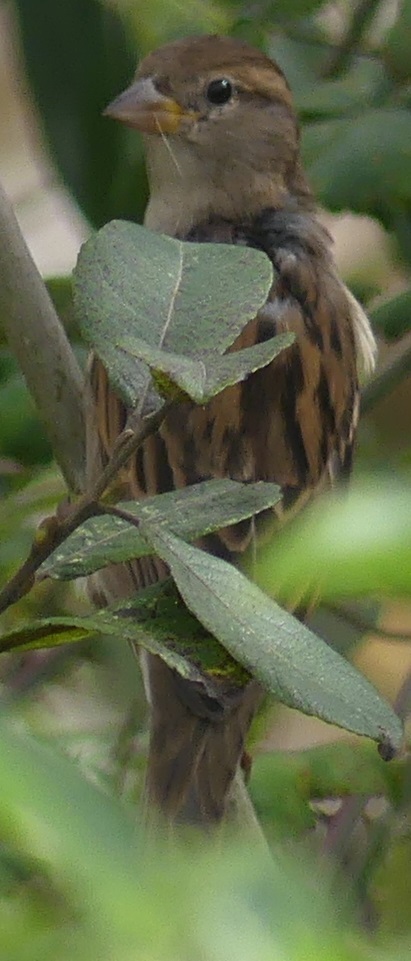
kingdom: Animalia
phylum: Chordata
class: Aves
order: Passeriformes
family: Passeridae
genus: Passer
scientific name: Passer domesticus
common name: House sparrow
